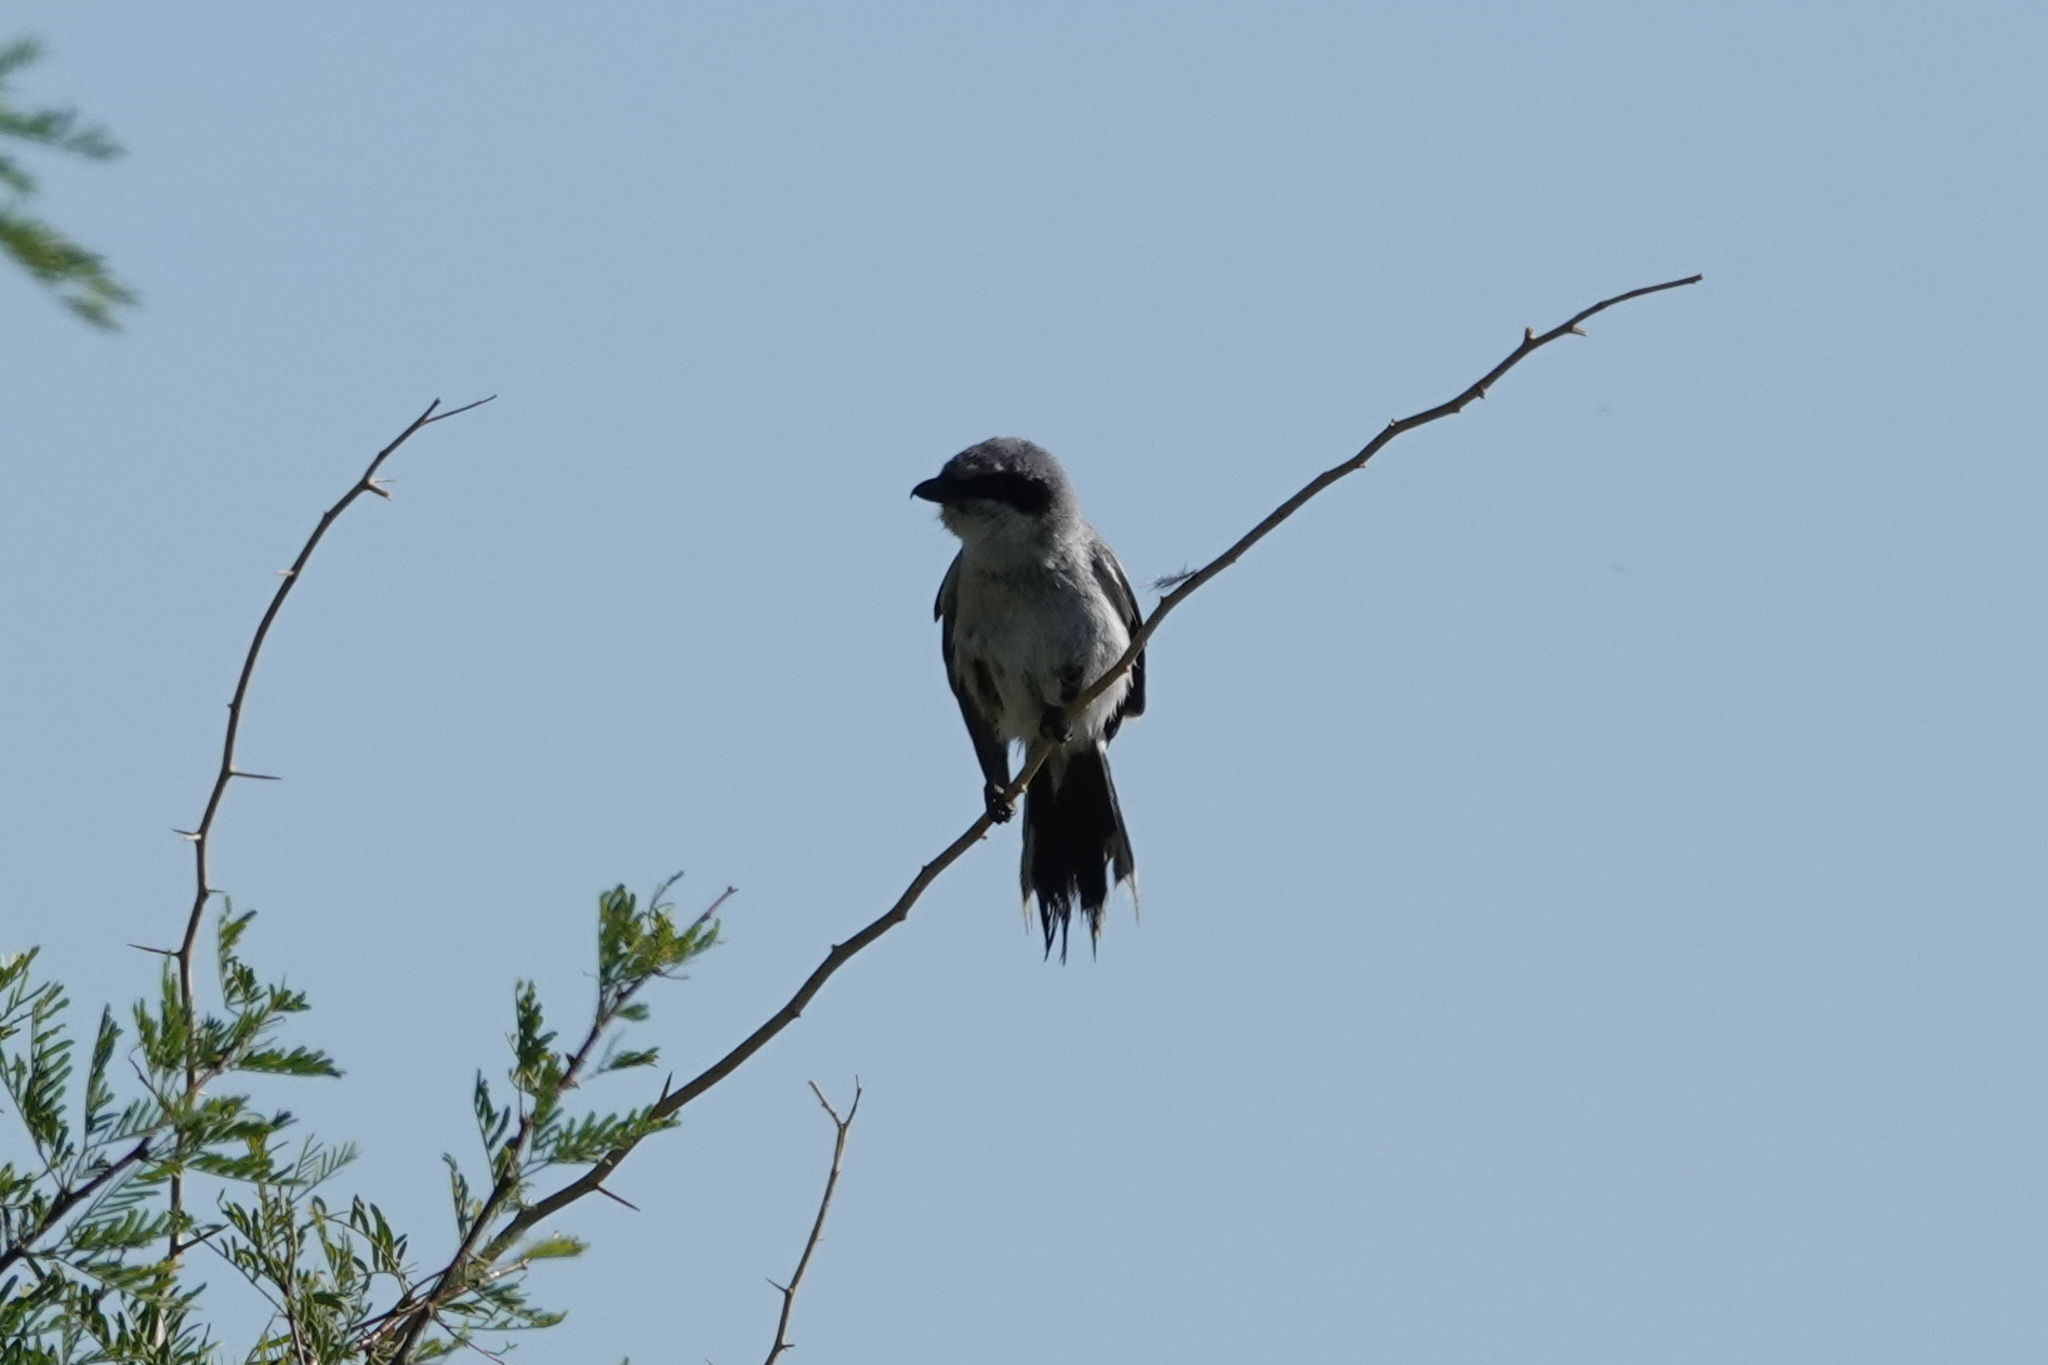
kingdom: Animalia
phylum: Chordata
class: Aves
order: Passeriformes
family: Laniidae
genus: Lanius
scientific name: Lanius ludovicianus
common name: Loggerhead shrike
